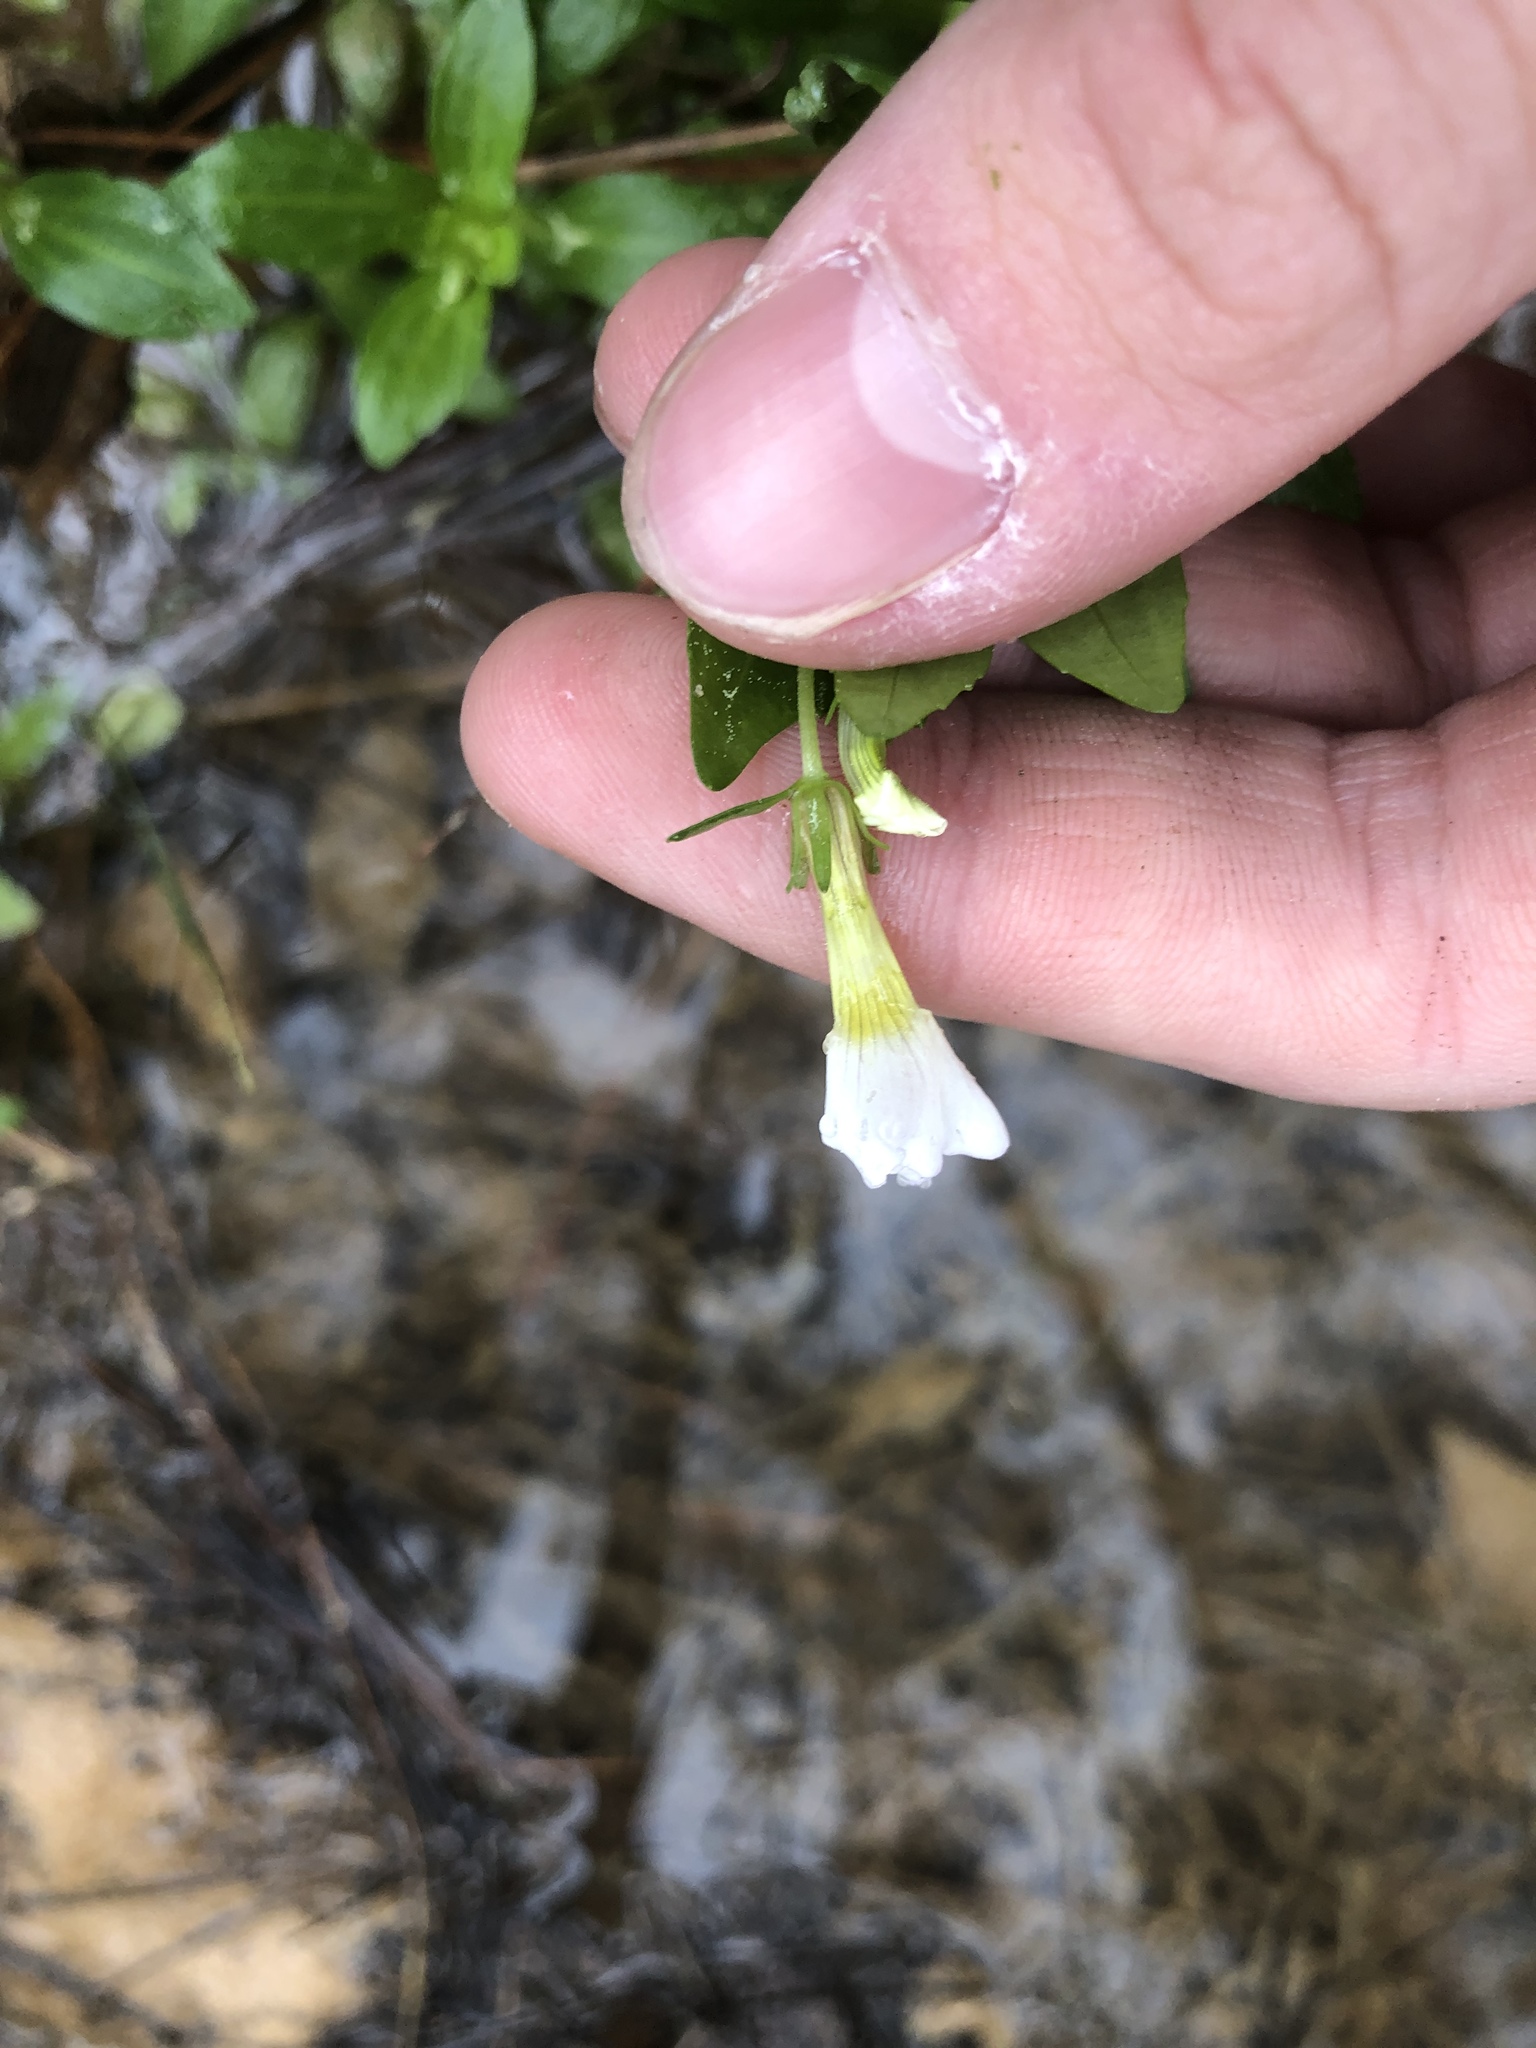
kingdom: Plantae
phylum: Tracheophyta
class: Magnoliopsida
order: Lamiales
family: Linderniaceae
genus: Lindernia
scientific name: Lindernia dubia
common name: Annual false pimpernel
